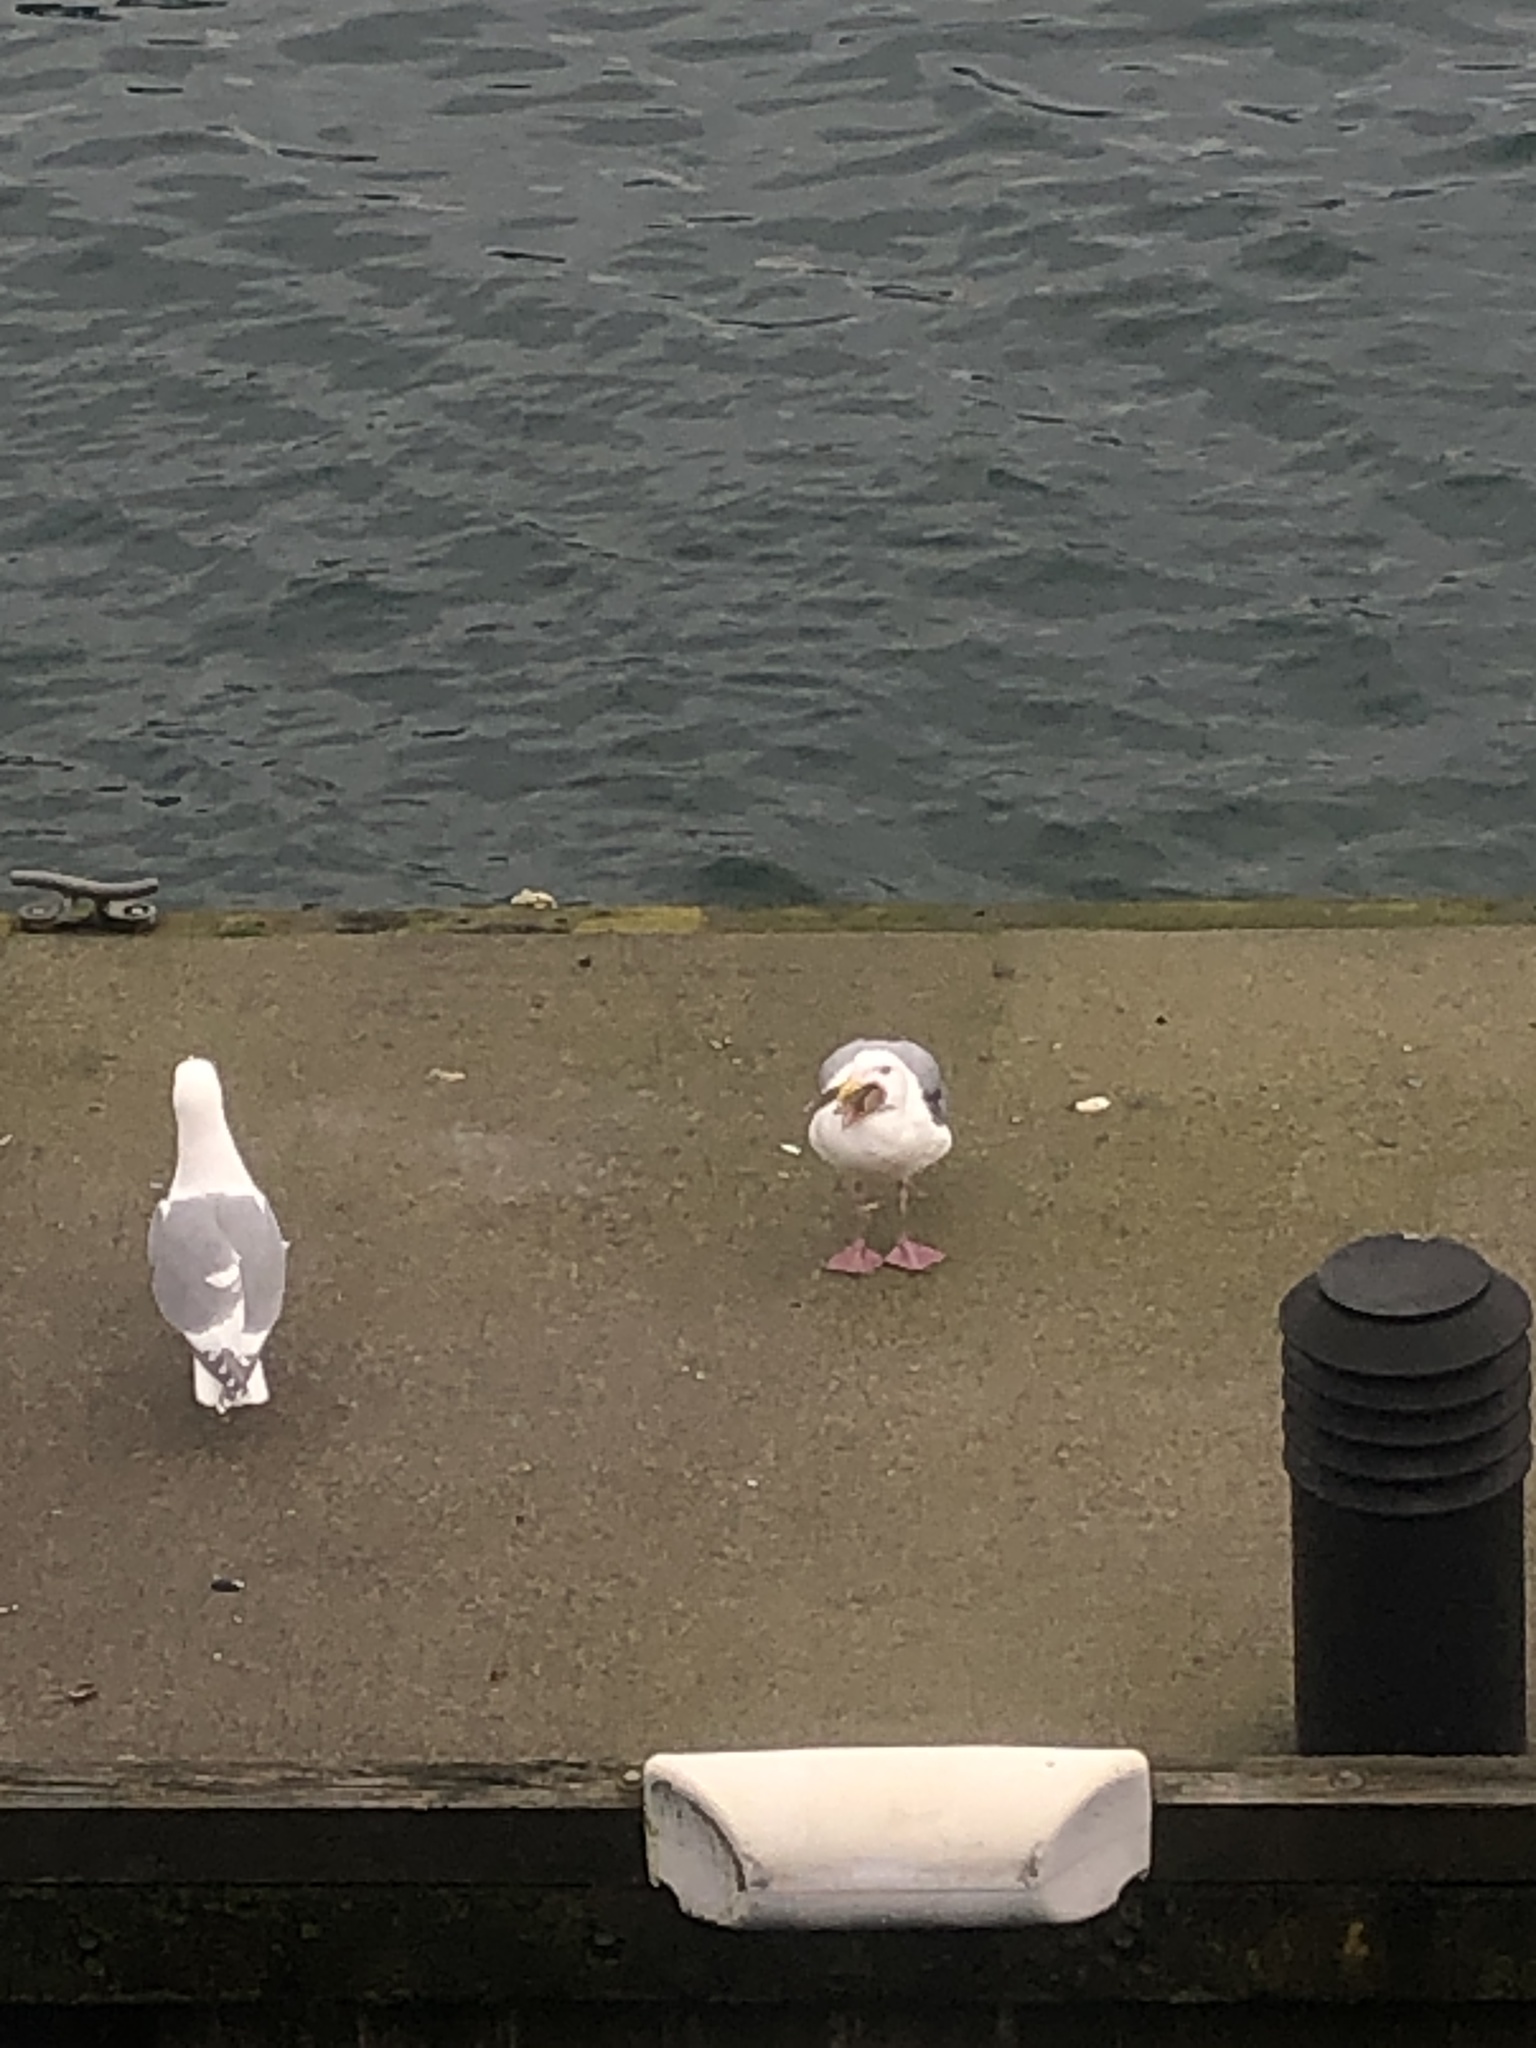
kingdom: Animalia
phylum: Chordata
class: Aves
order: Charadriiformes
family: Laridae
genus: Larus
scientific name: Larus glaucescens
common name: Glaucous-winged gull
